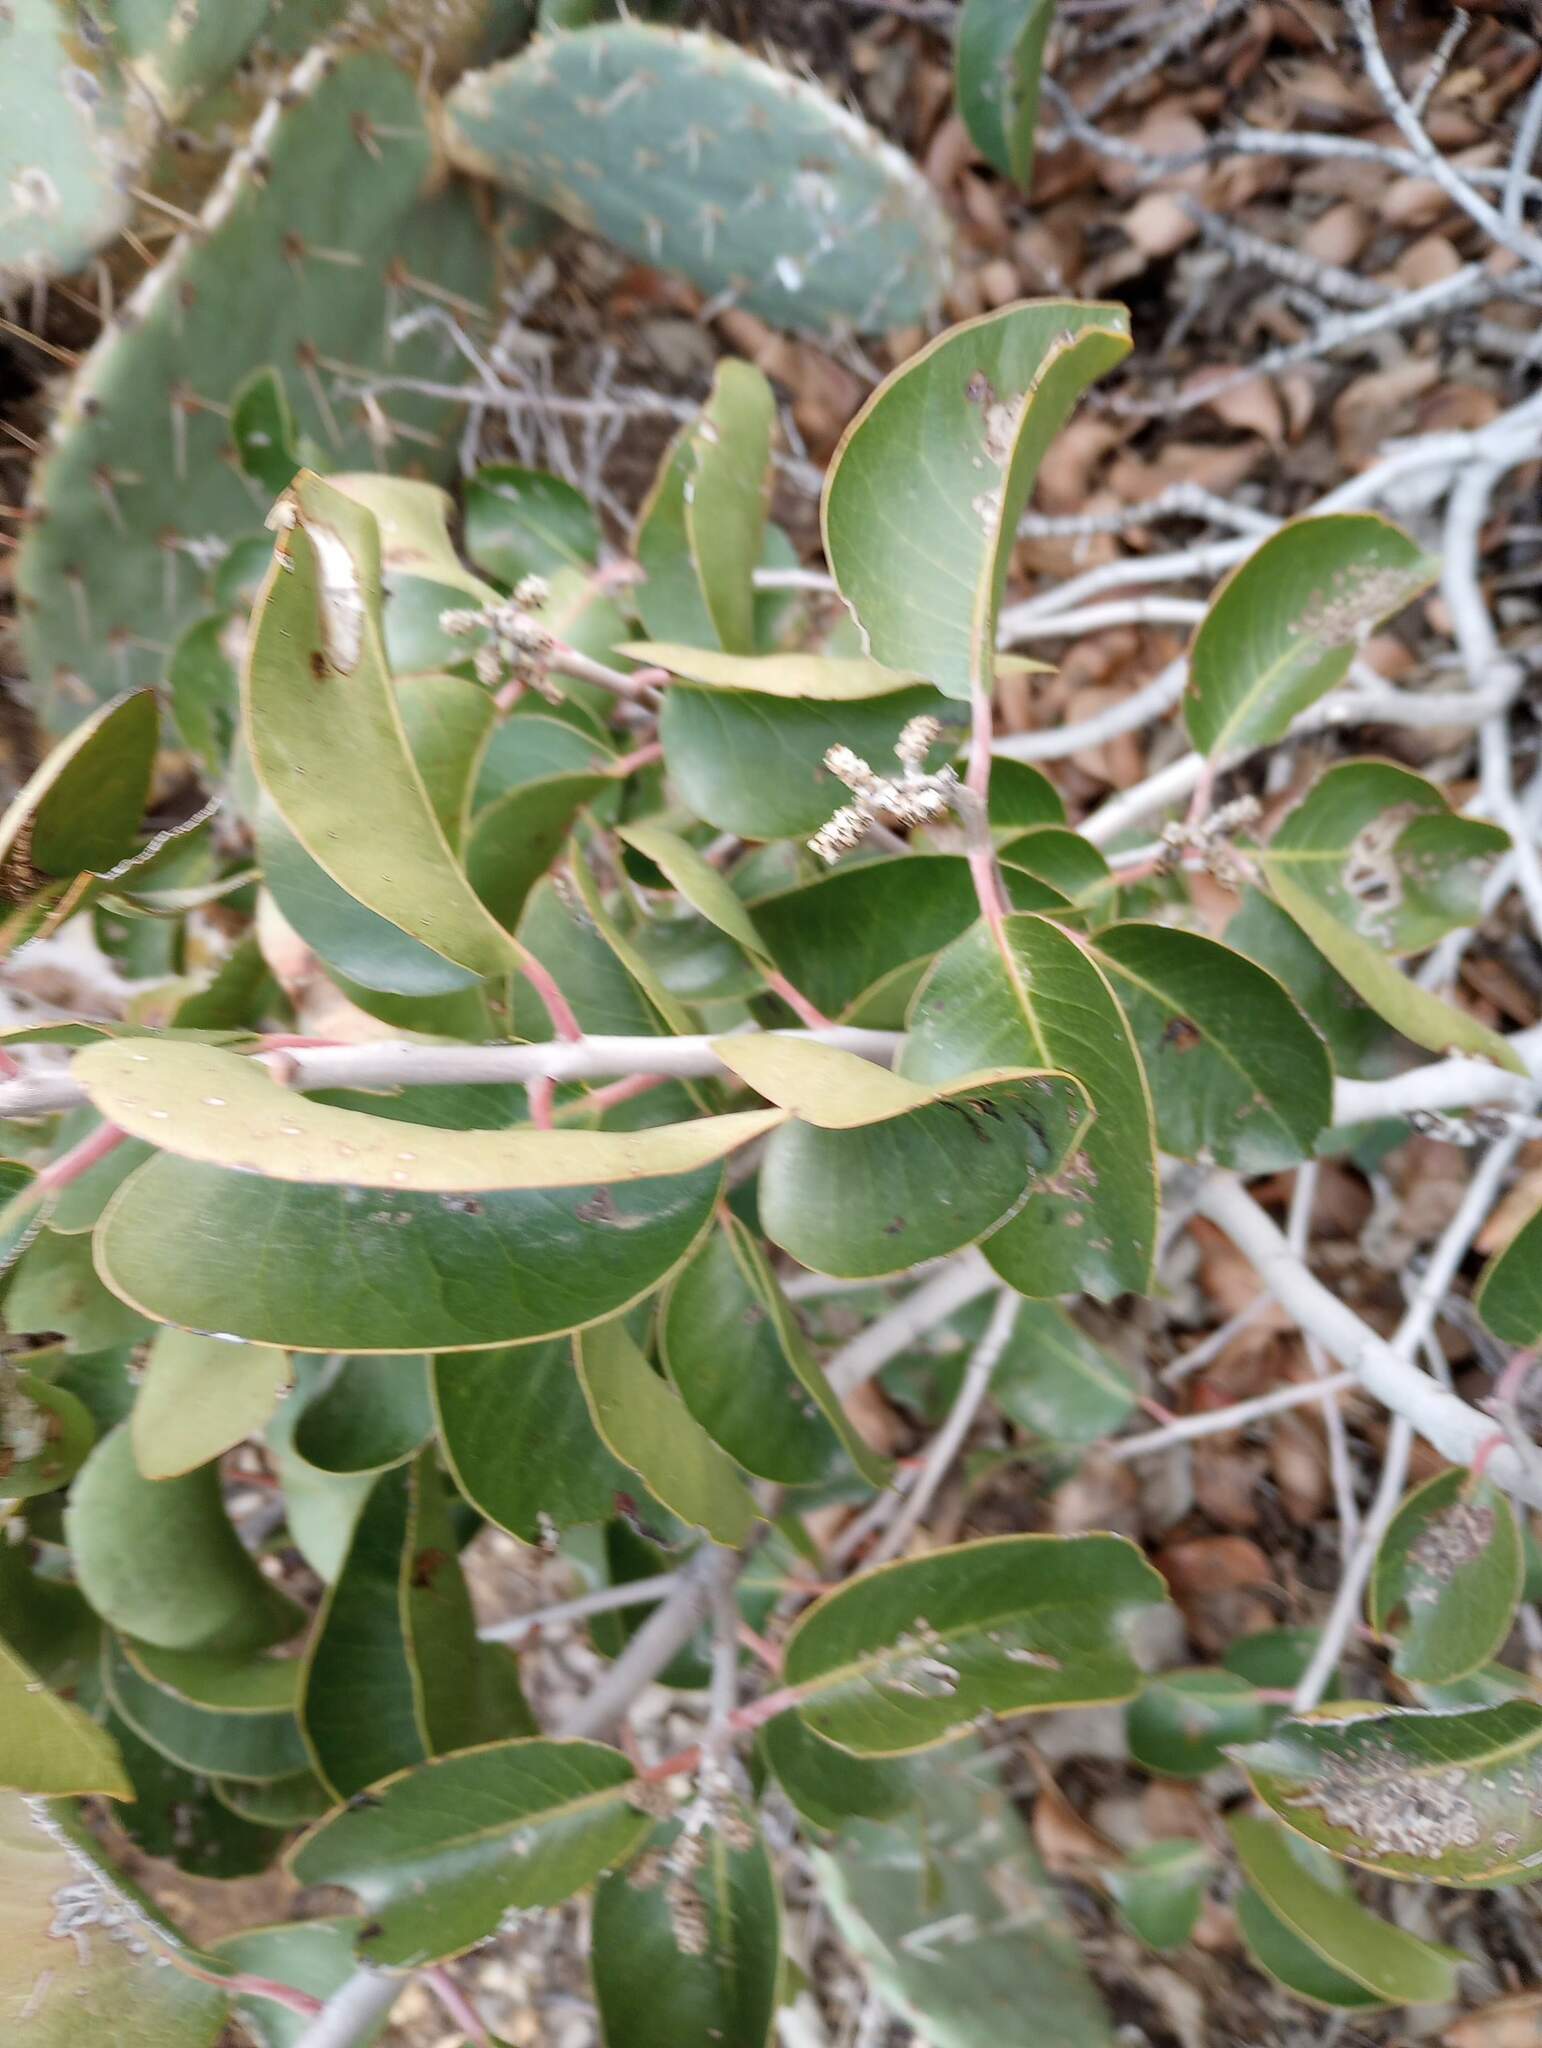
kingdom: Plantae
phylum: Tracheophyta
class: Magnoliopsida
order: Sapindales
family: Anacardiaceae
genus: Rhus
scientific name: Rhus ovata
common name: Sugar sumac
